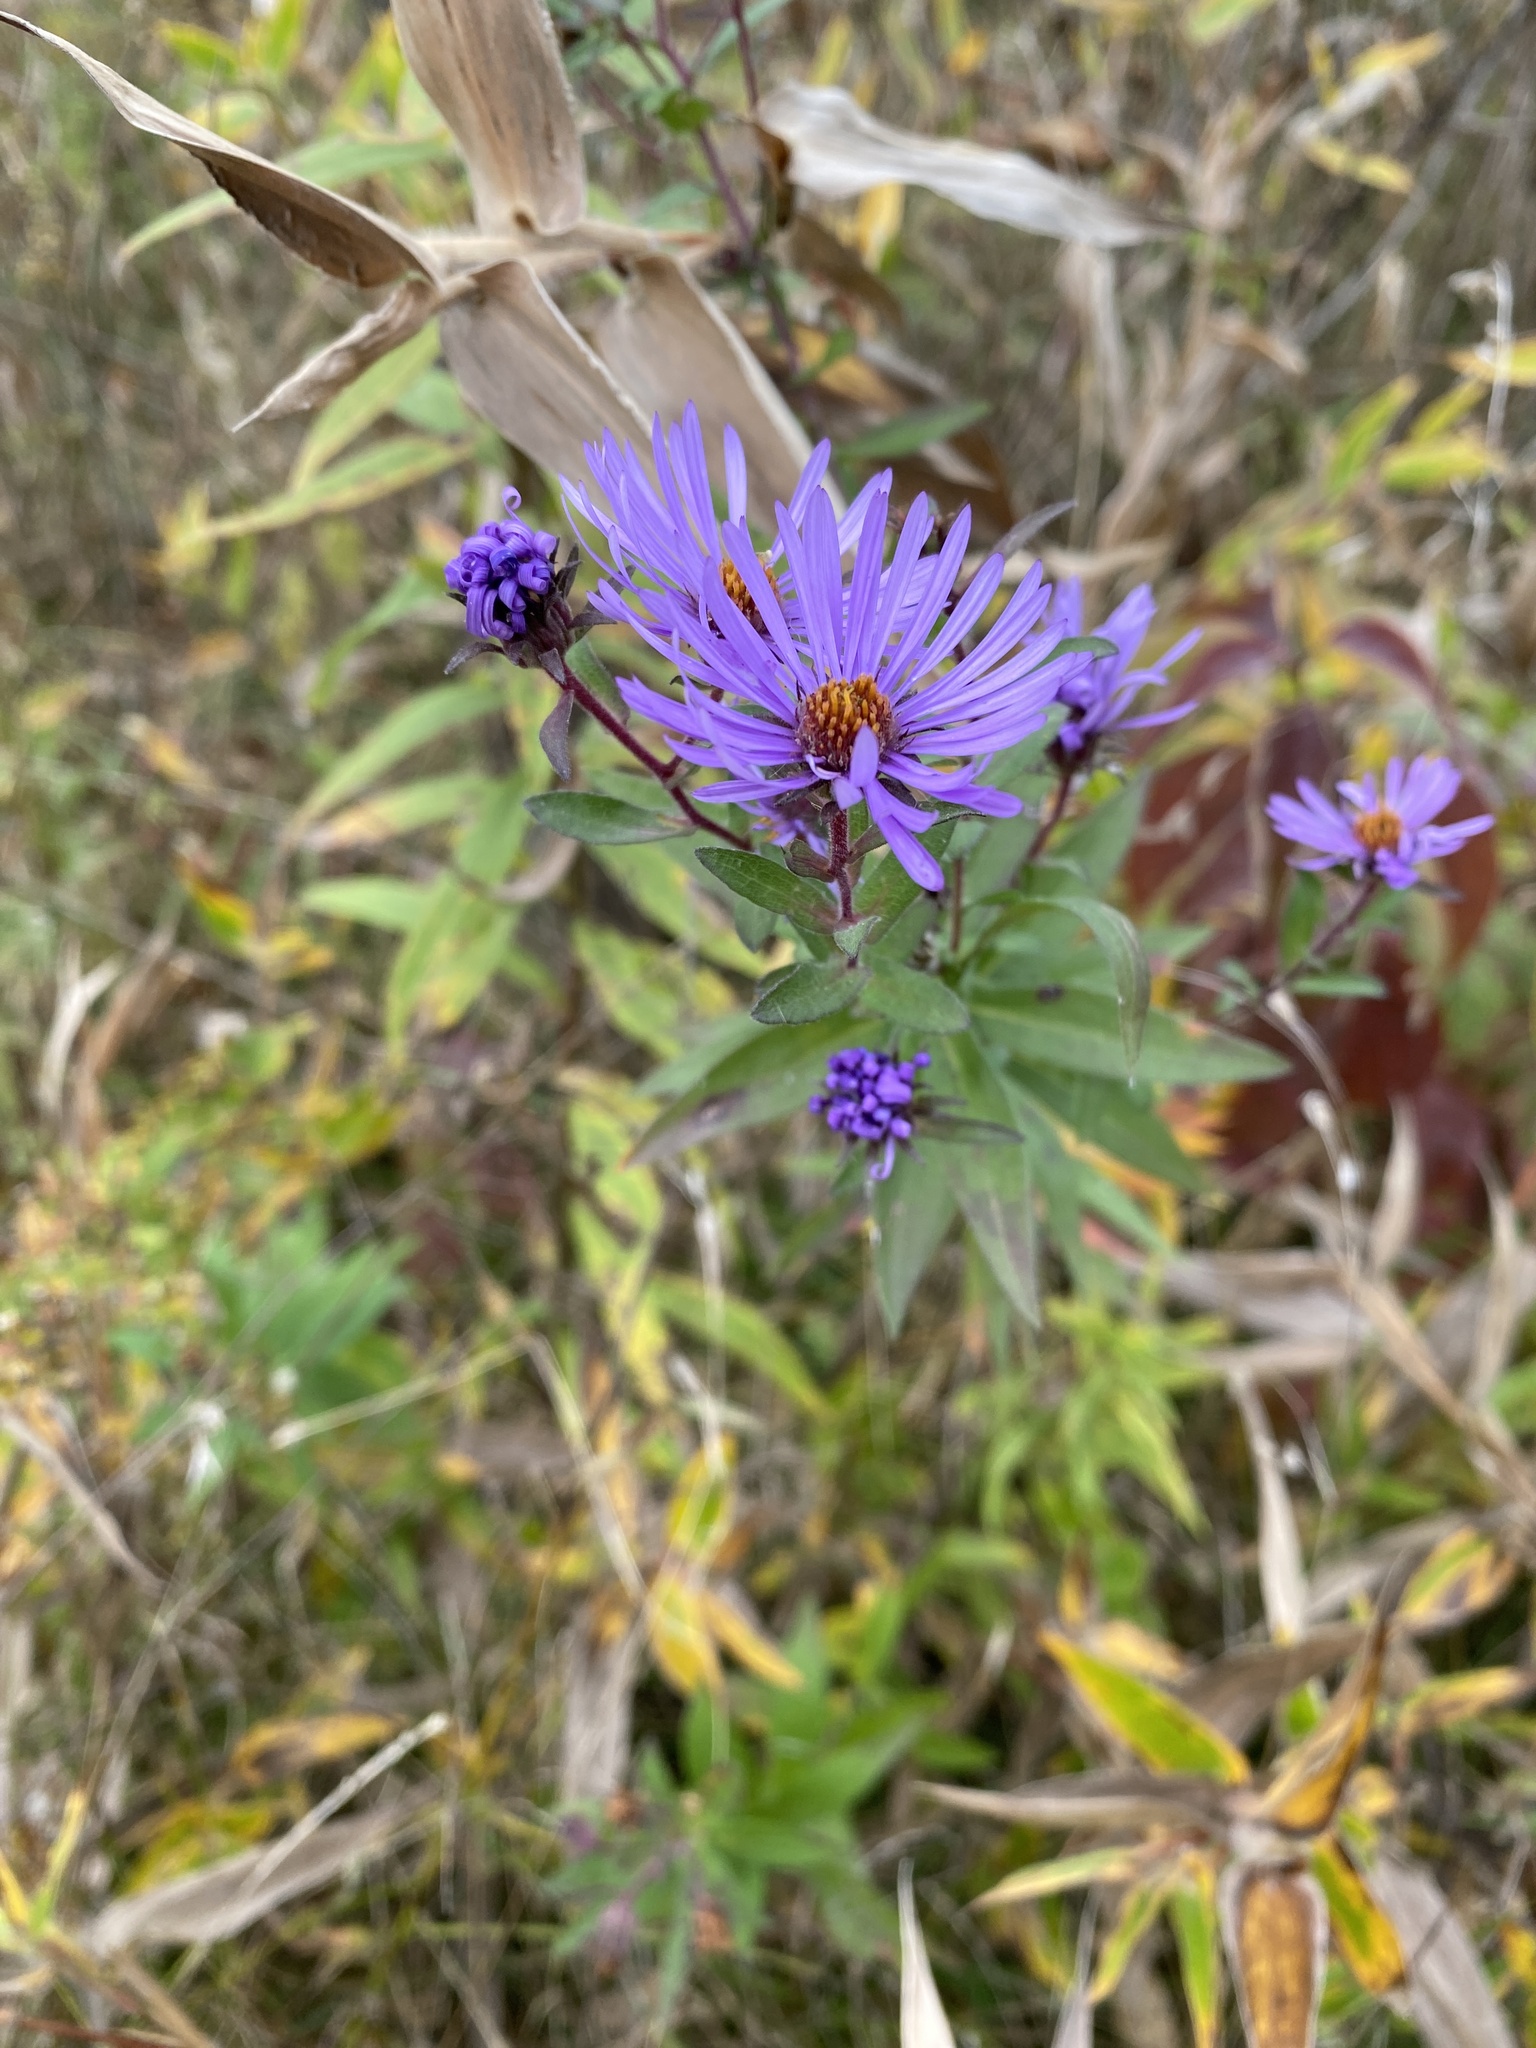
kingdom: Plantae
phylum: Tracheophyta
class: Magnoliopsida
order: Asterales
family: Asteraceae
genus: Symphyotrichum
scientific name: Symphyotrichum novae-angliae
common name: Michaelmas daisy
